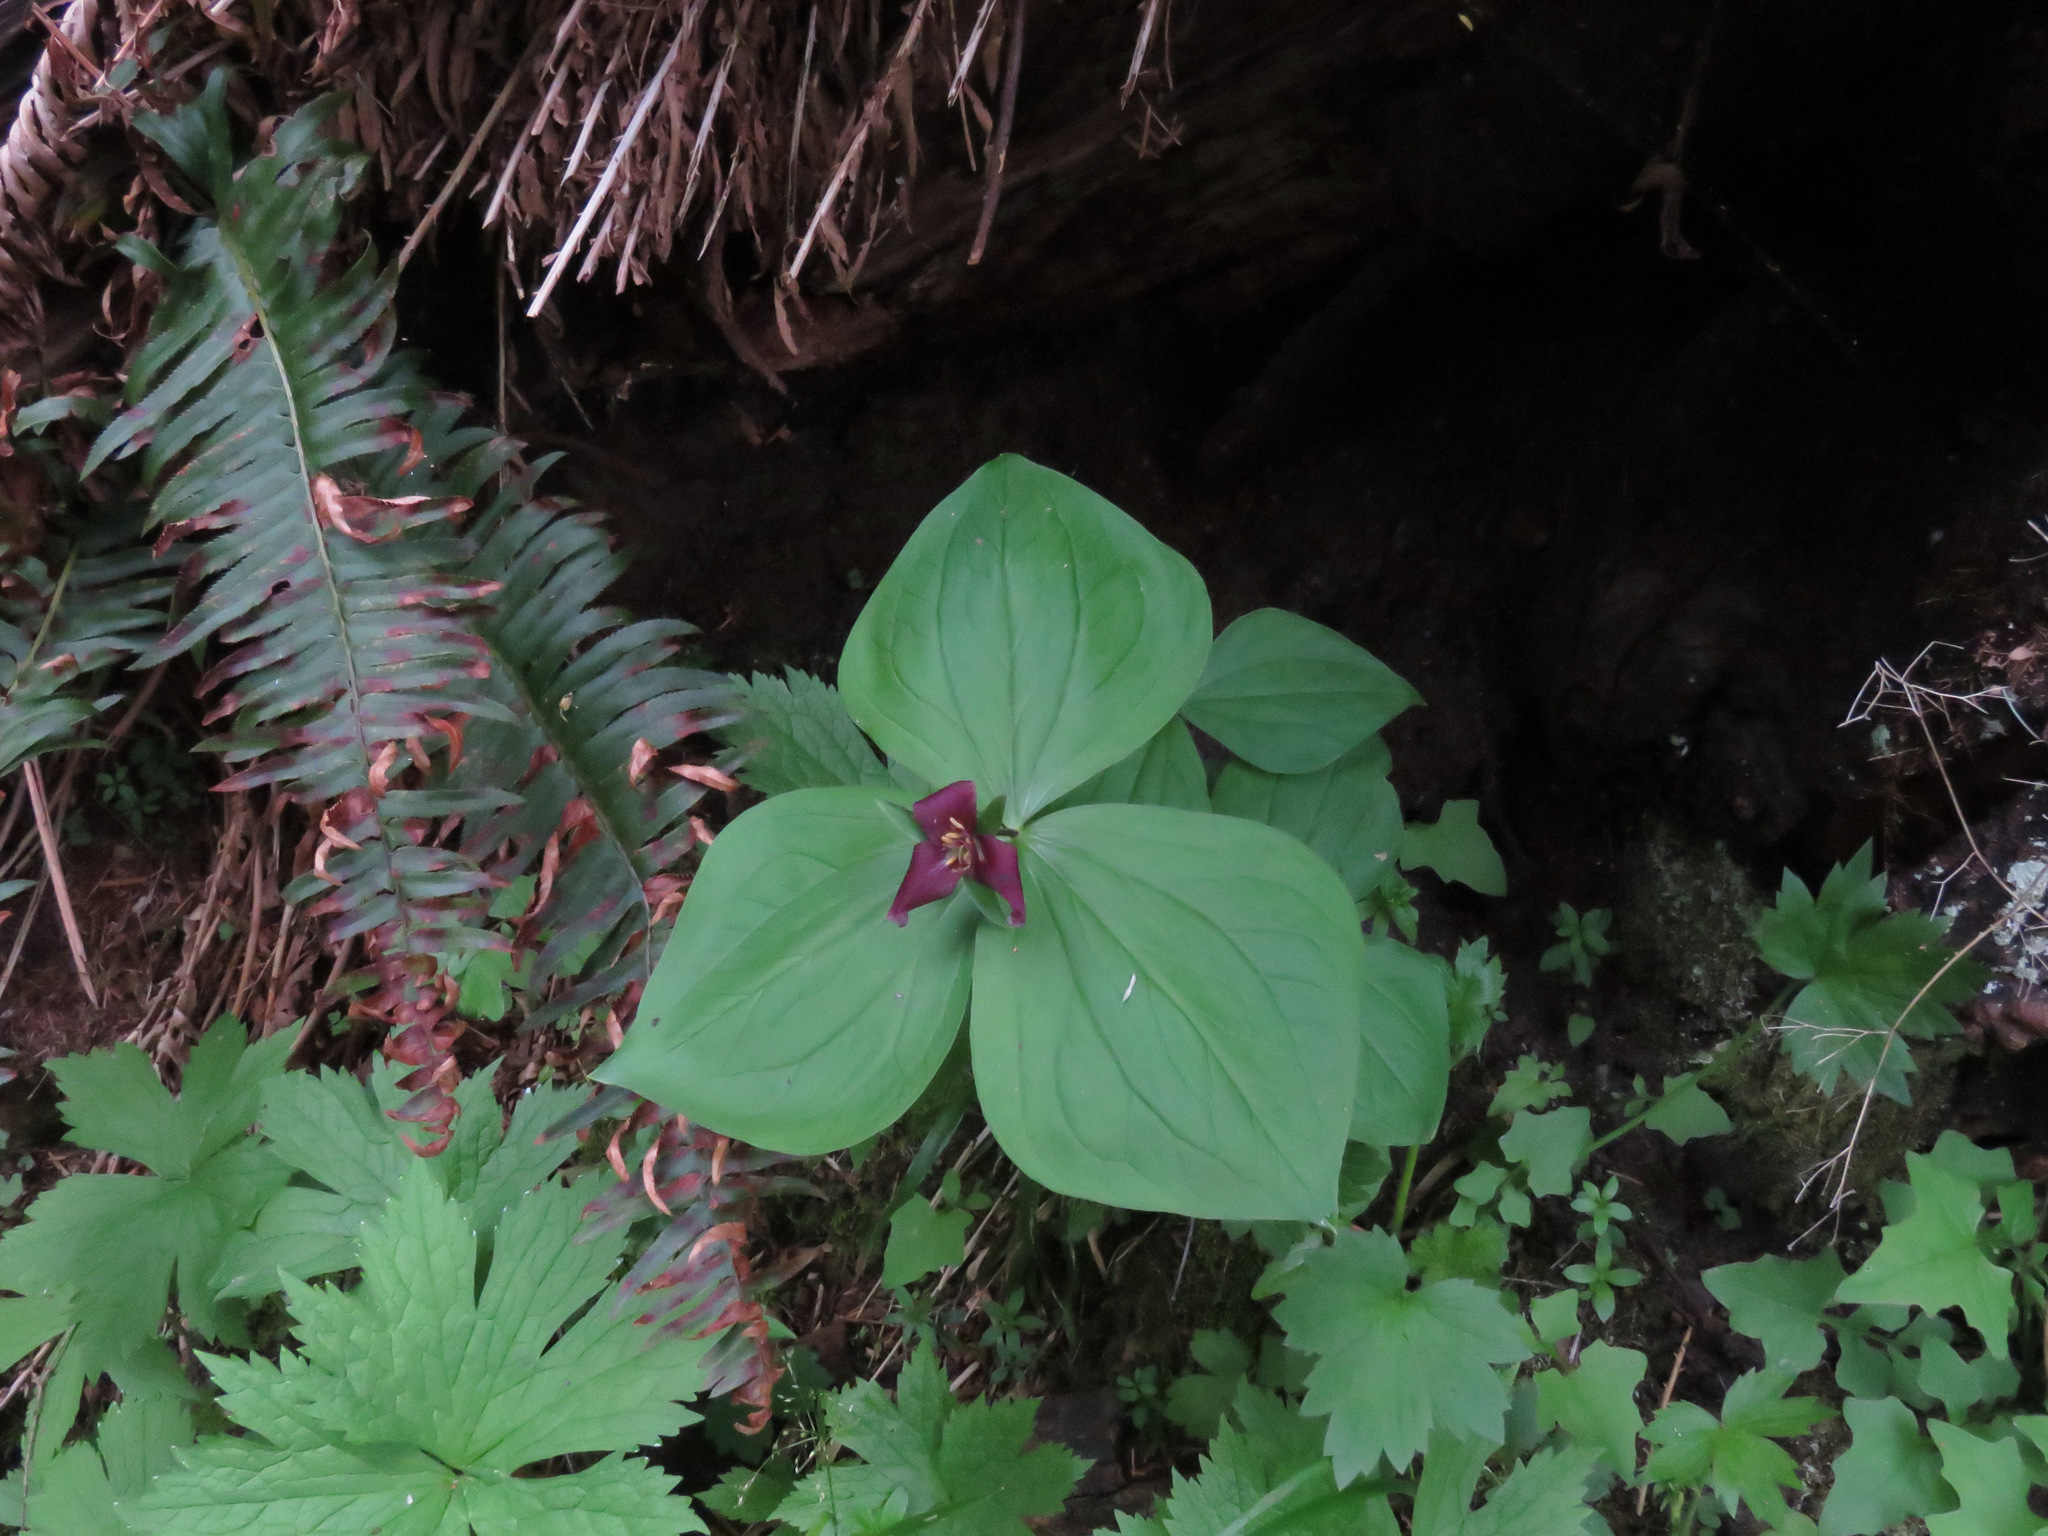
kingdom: Plantae
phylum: Tracheophyta
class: Liliopsida
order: Liliales
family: Melanthiaceae
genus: Trillium
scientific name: Trillium ovatum
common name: Pacific trillium
